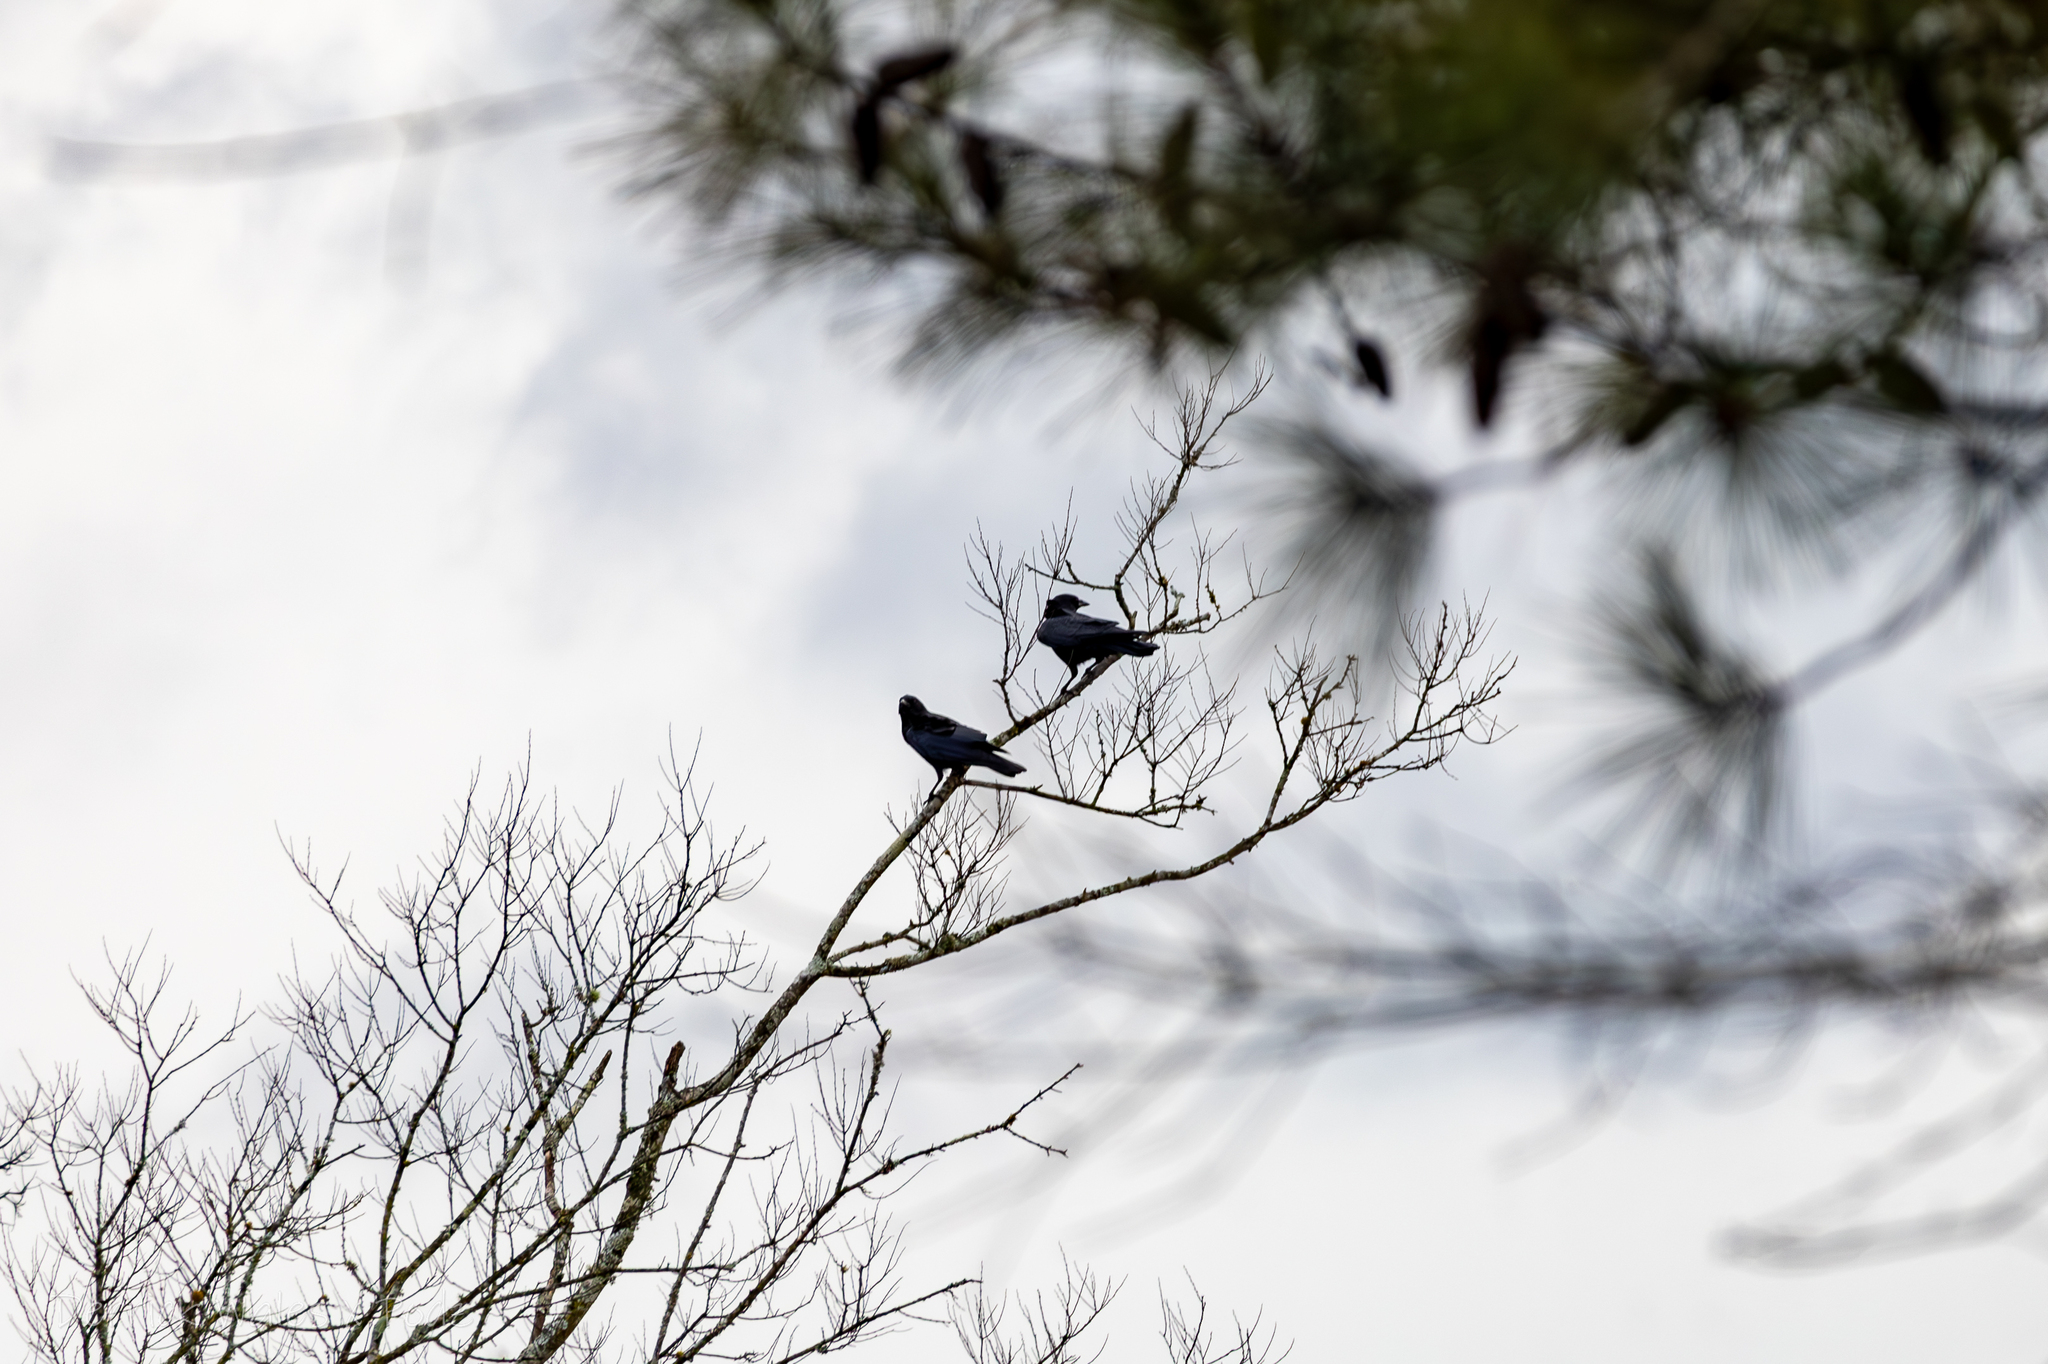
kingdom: Animalia
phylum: Chordata
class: Aves
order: Passeriformes
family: Corvidae
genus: Corvus
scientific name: Corvus brachyrhynchos
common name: American crow
